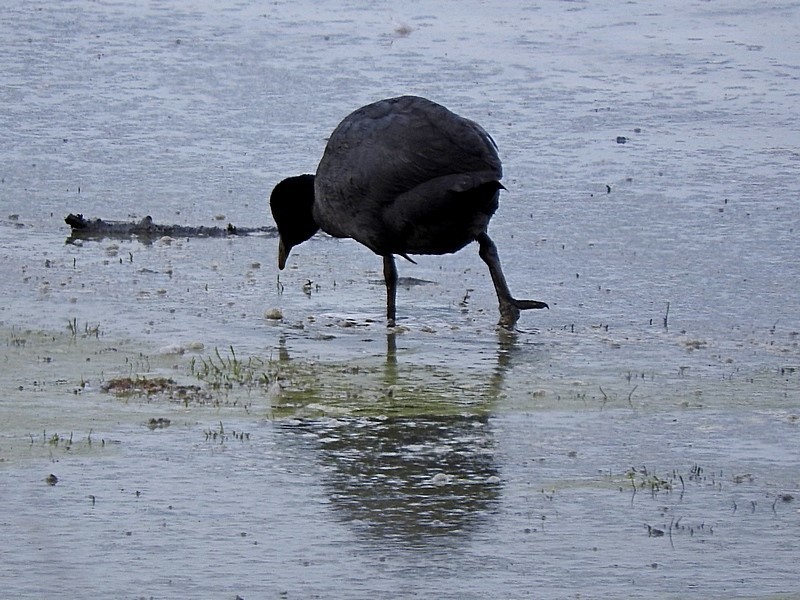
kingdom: Animalia
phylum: Chordata
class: Aves
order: Gruiformes
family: Rallidae
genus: Fulica
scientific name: Fulica atra
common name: Eurasian coot
